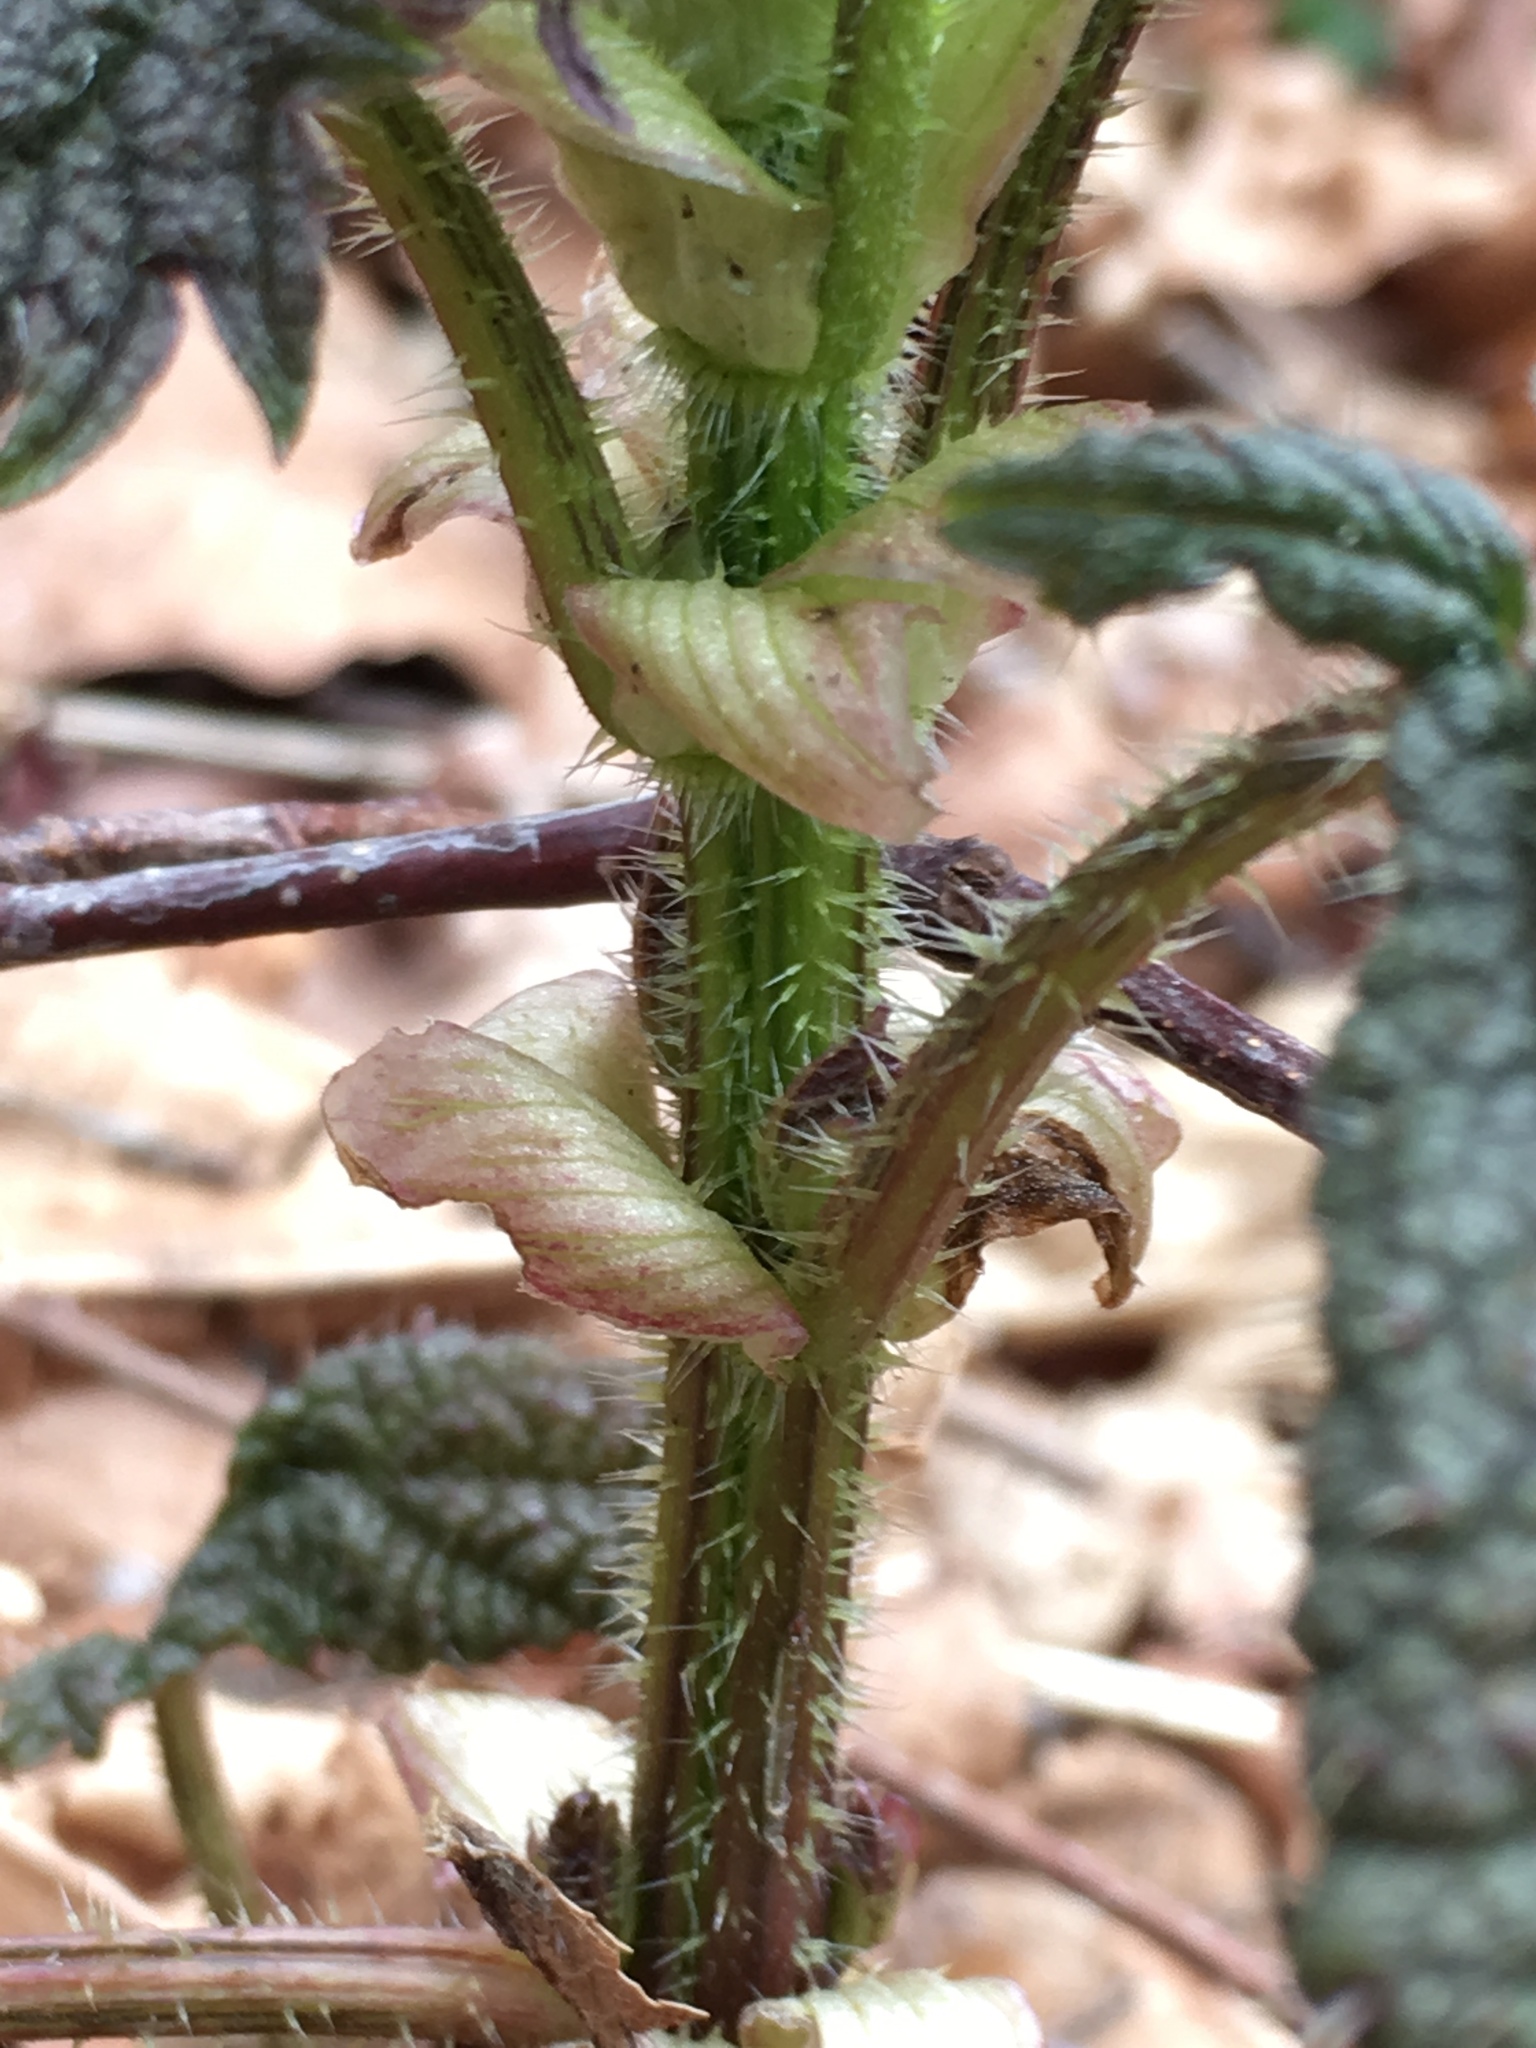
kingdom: Plantae
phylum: Tracheophyta
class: Magnoliopsida
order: Rosales
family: Urticaceae
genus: Urtica
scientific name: Urtica gracilis
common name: Slender stinging nettle
